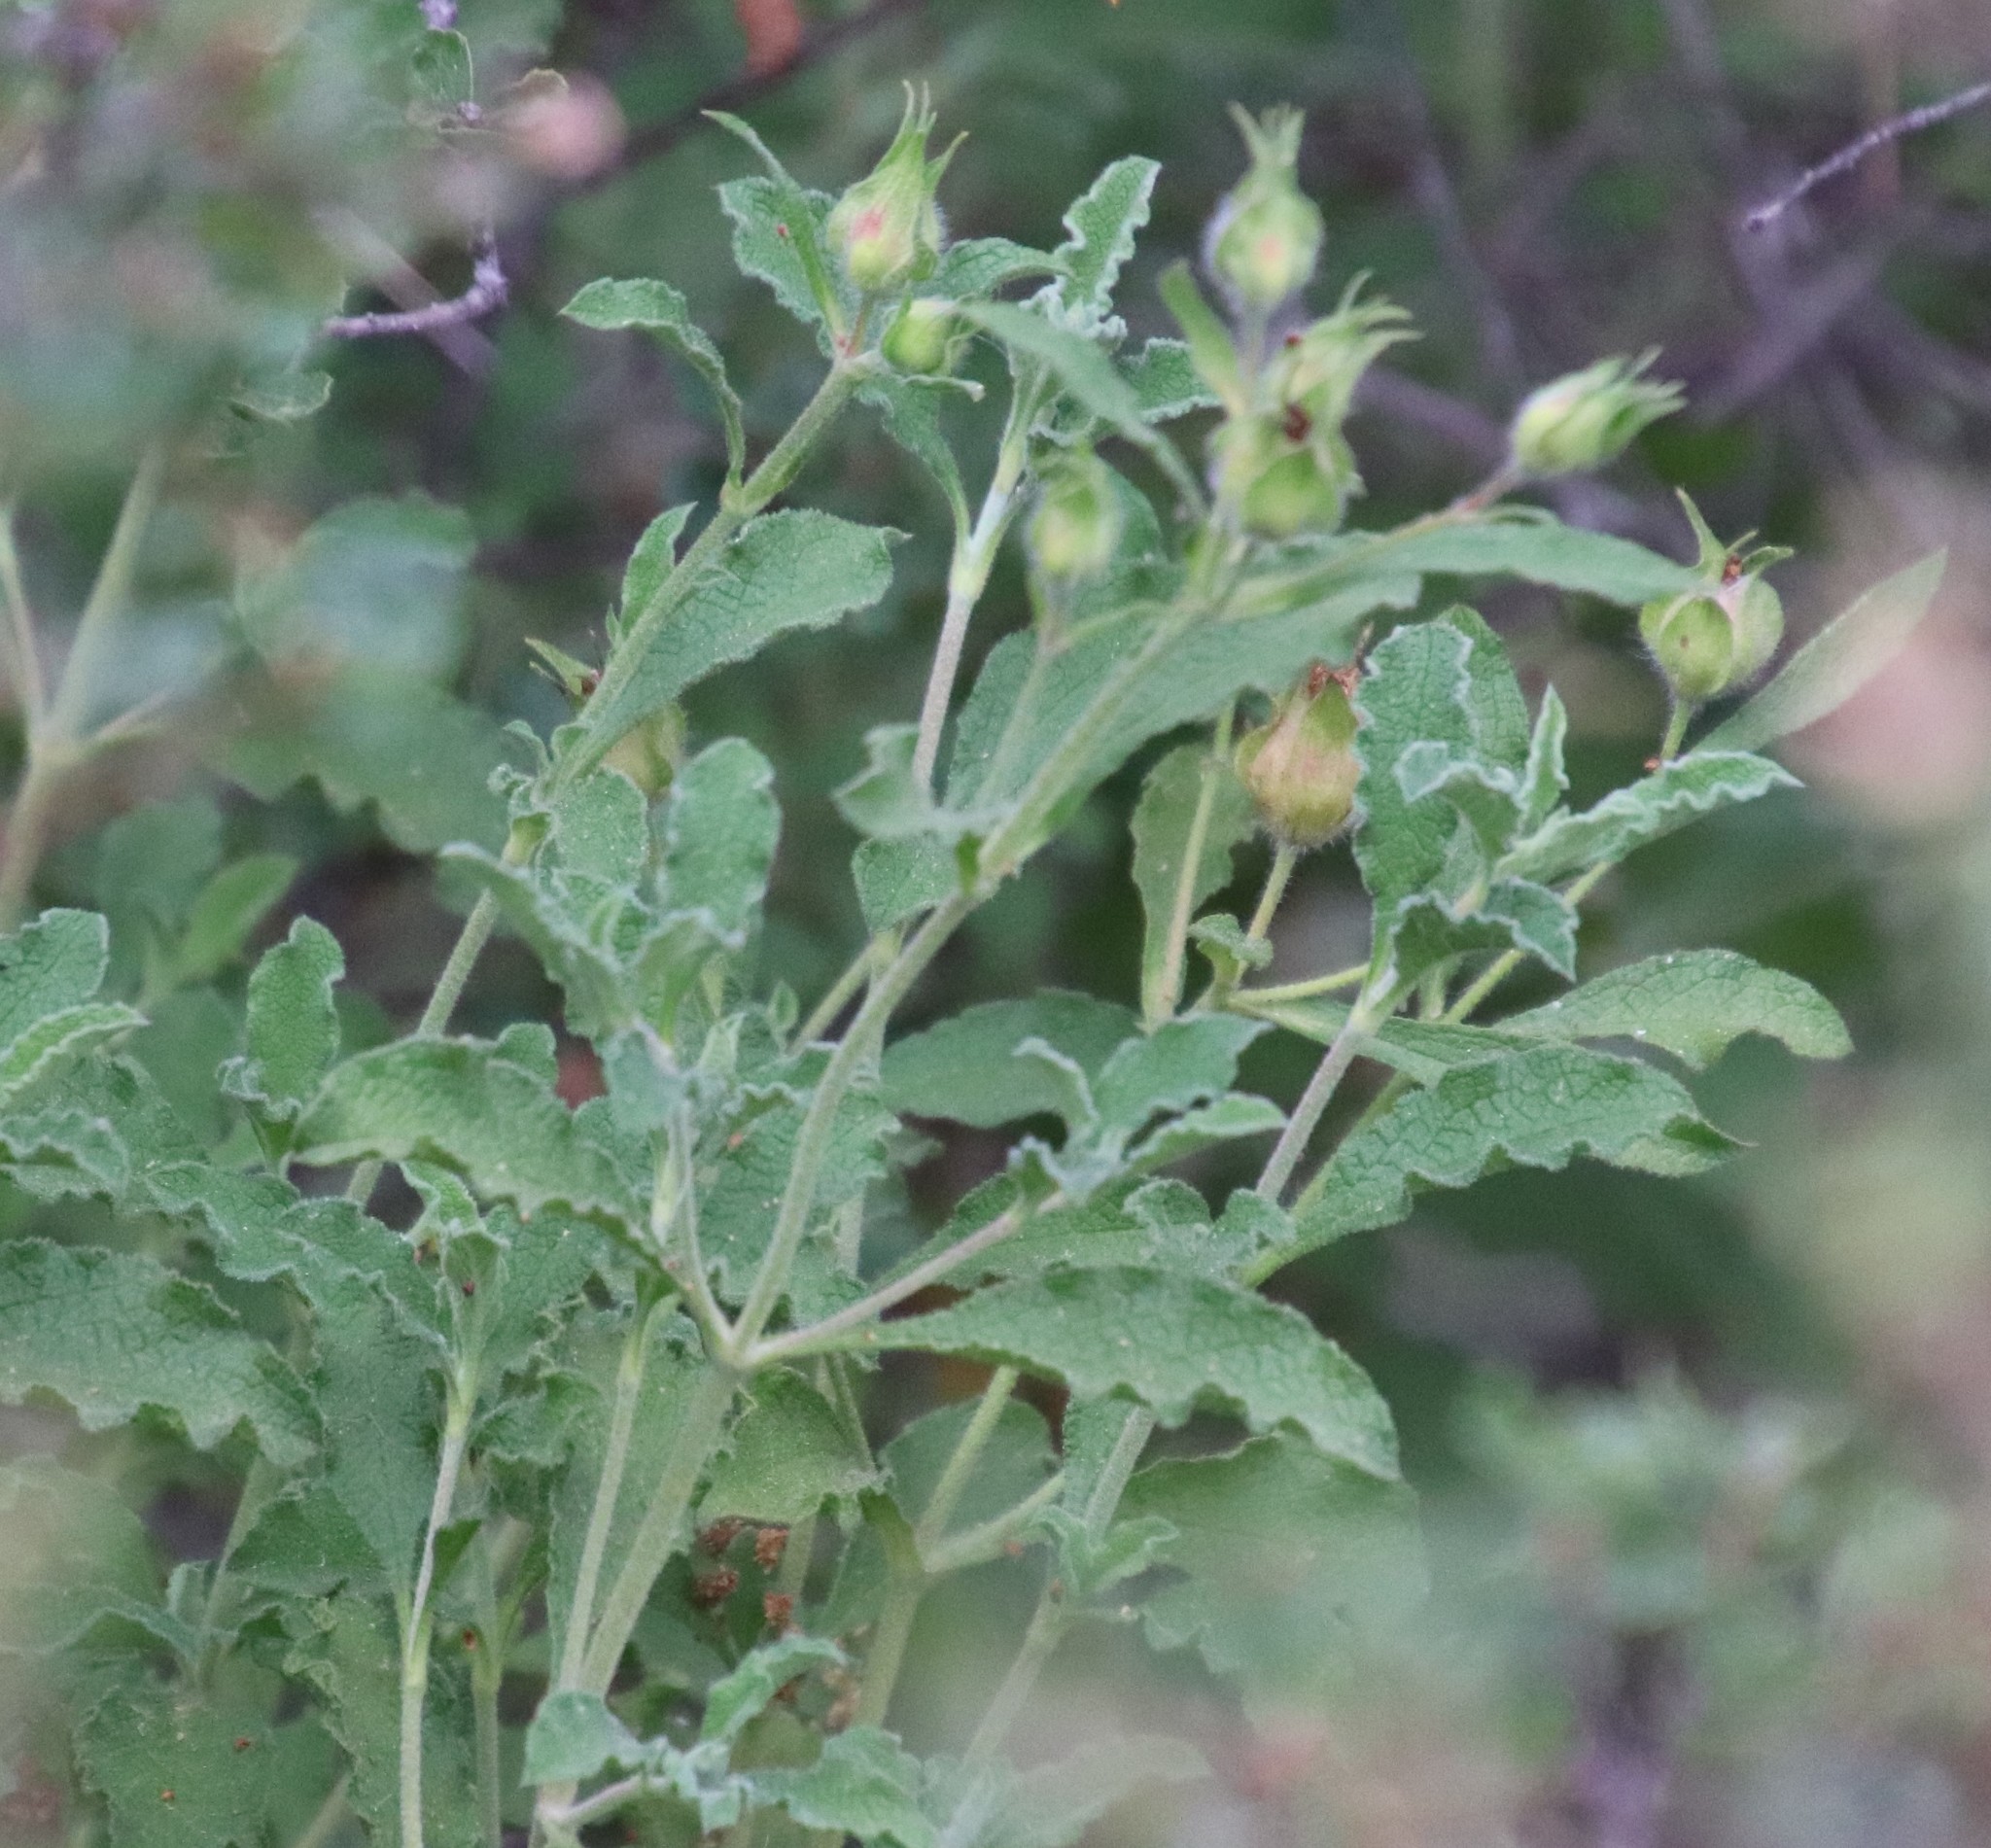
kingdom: Plantae
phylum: Tracheophyta
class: Magnoliopsida
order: Malvales
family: Cistaceae
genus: Cistus
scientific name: Cistus creticus
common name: Cretan rockrose
